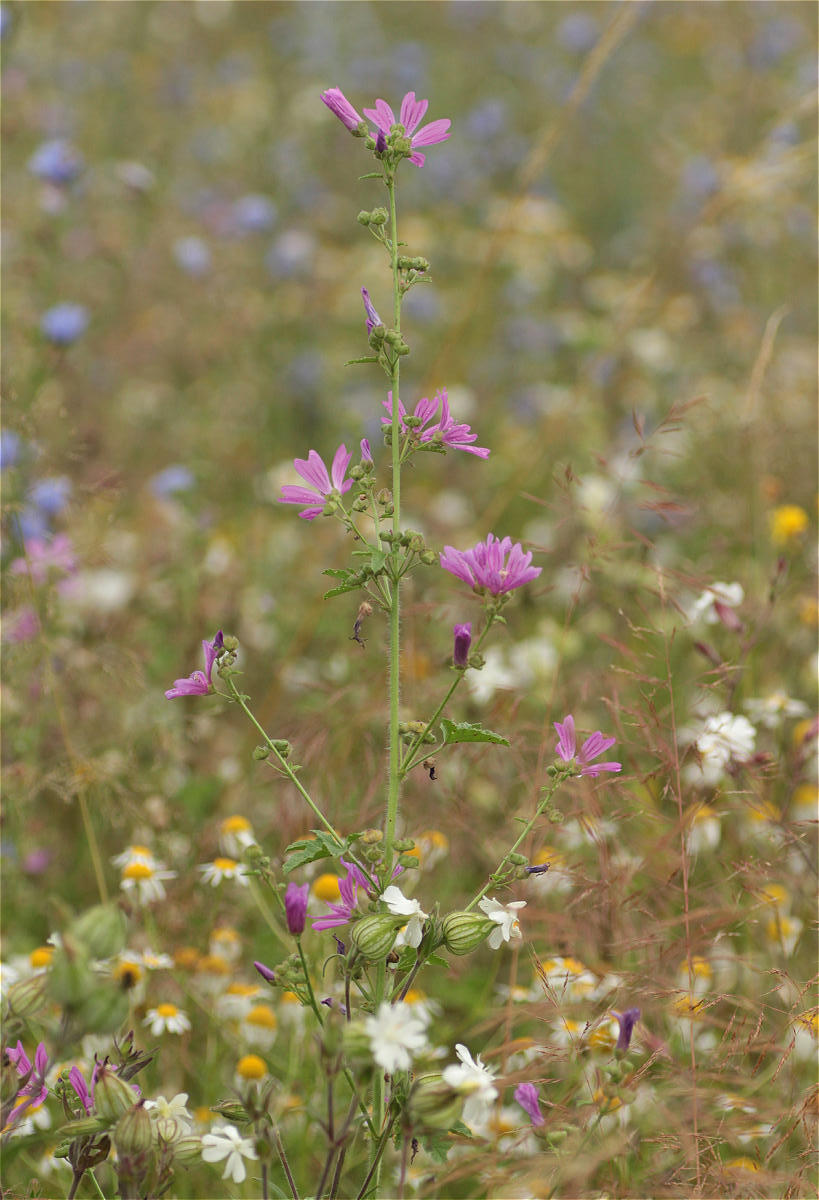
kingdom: Plantae
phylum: Tracheophyta
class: Magnoliopsida
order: Malvales
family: Malvaceae
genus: Malva
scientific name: Malva sylvestris
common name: Common mallow
